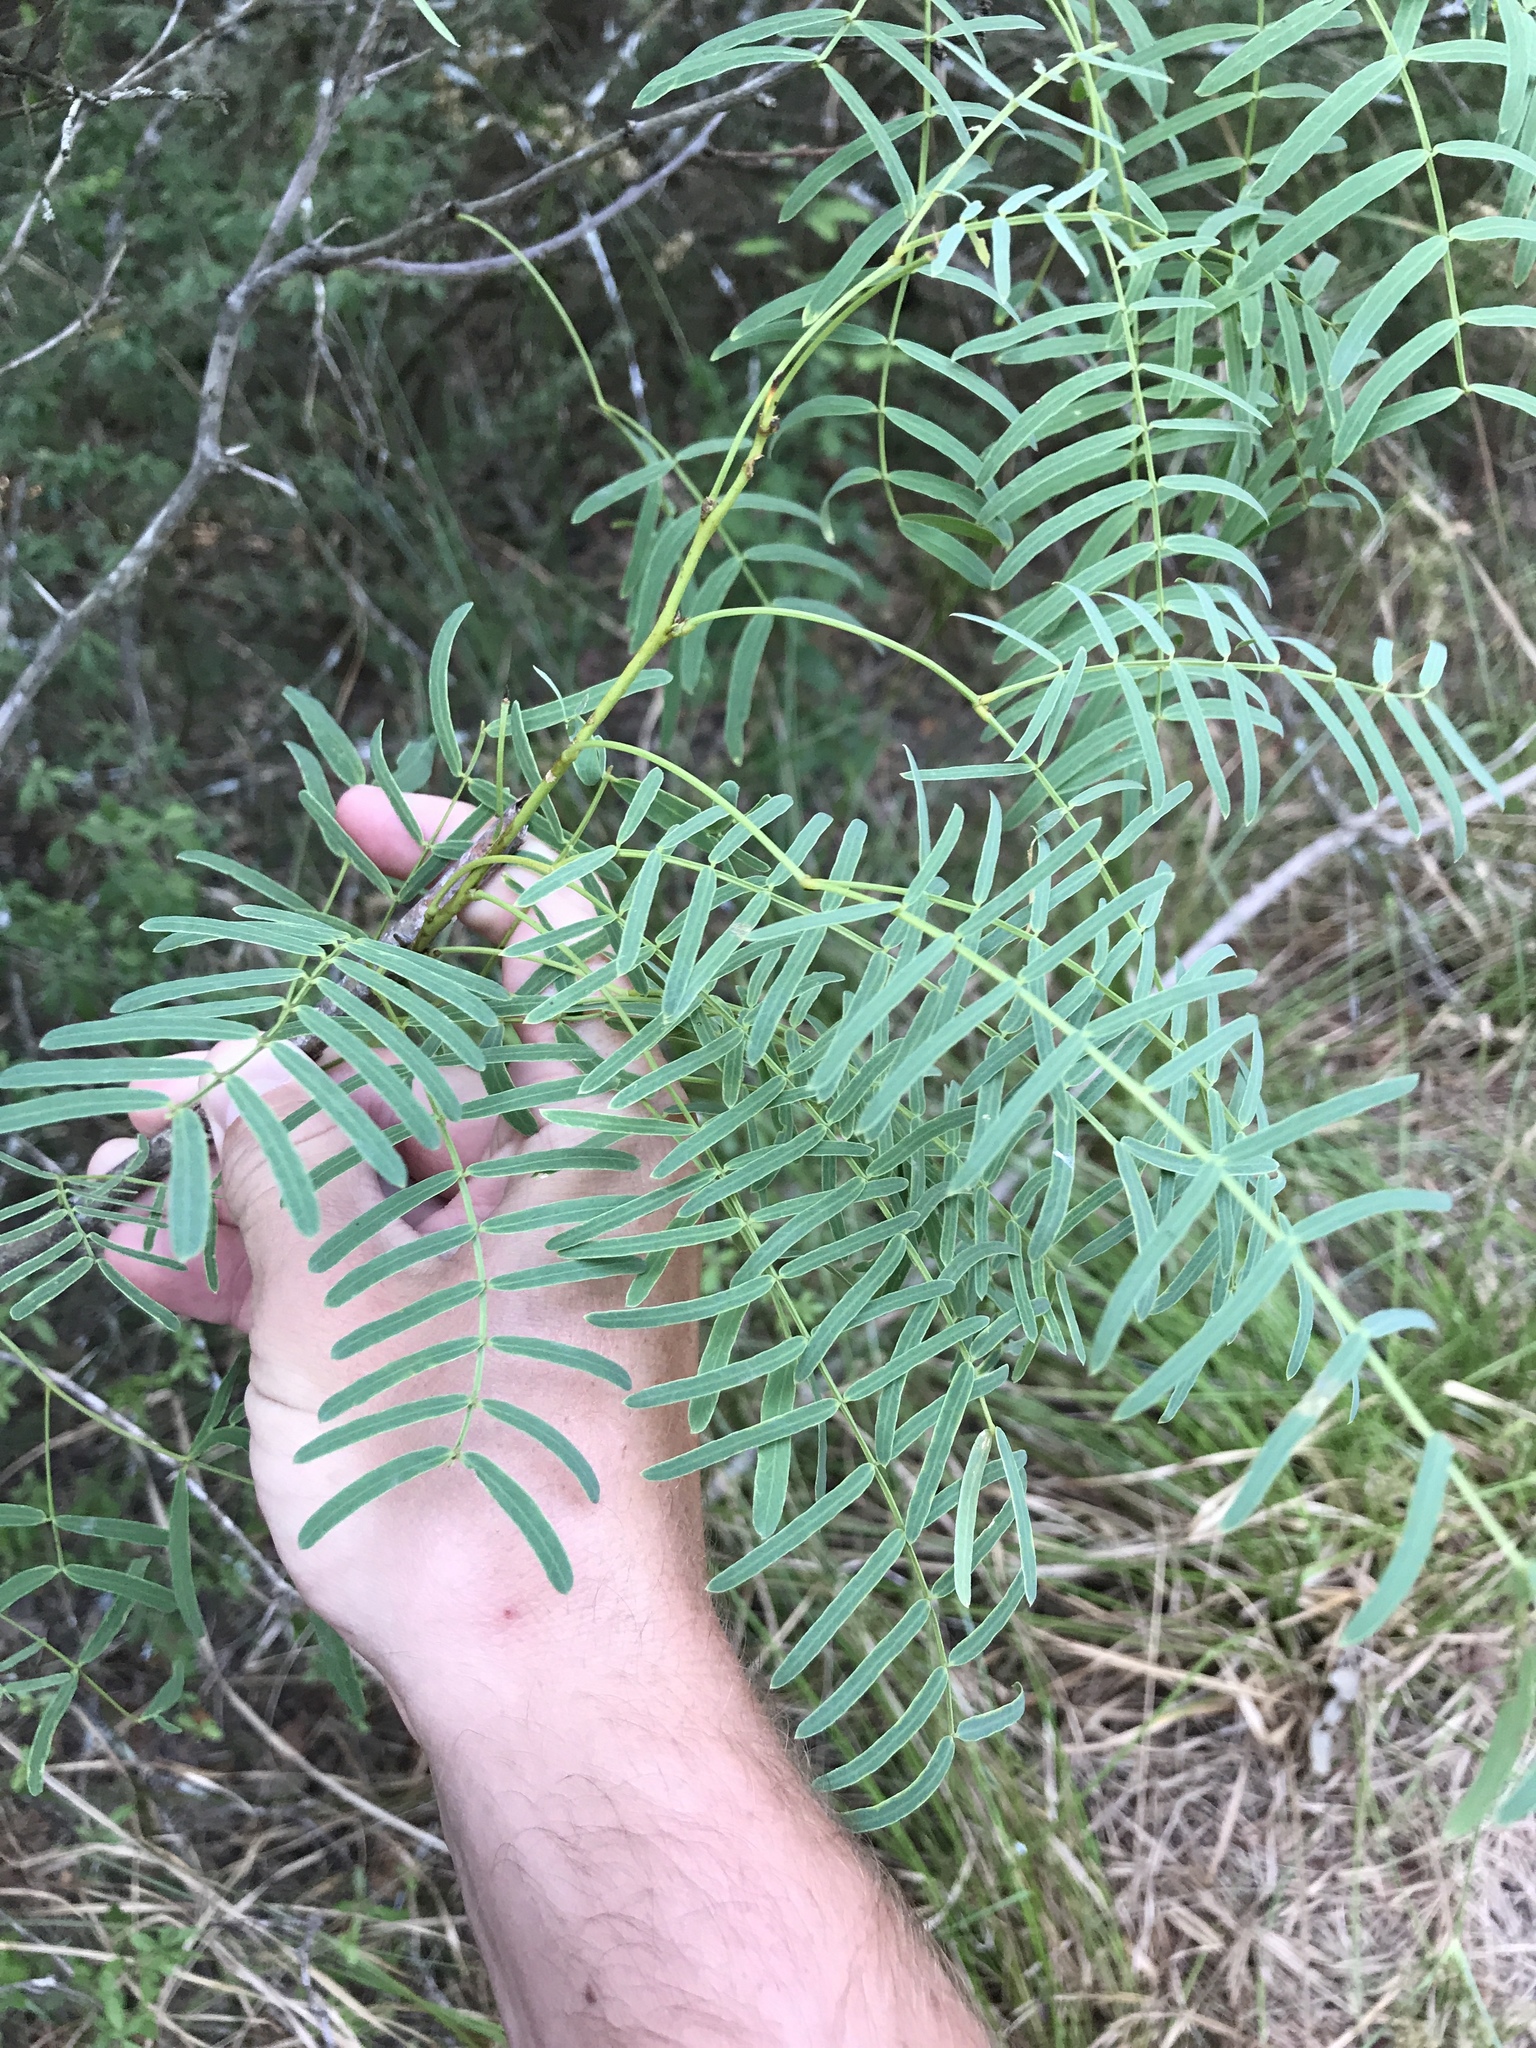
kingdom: Plantae
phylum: Tracheophyta
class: Magnoliopsida
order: Fabales
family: Fabaceae
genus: Prosopis
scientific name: Prosopis glandulosa
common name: Honey mesquite
